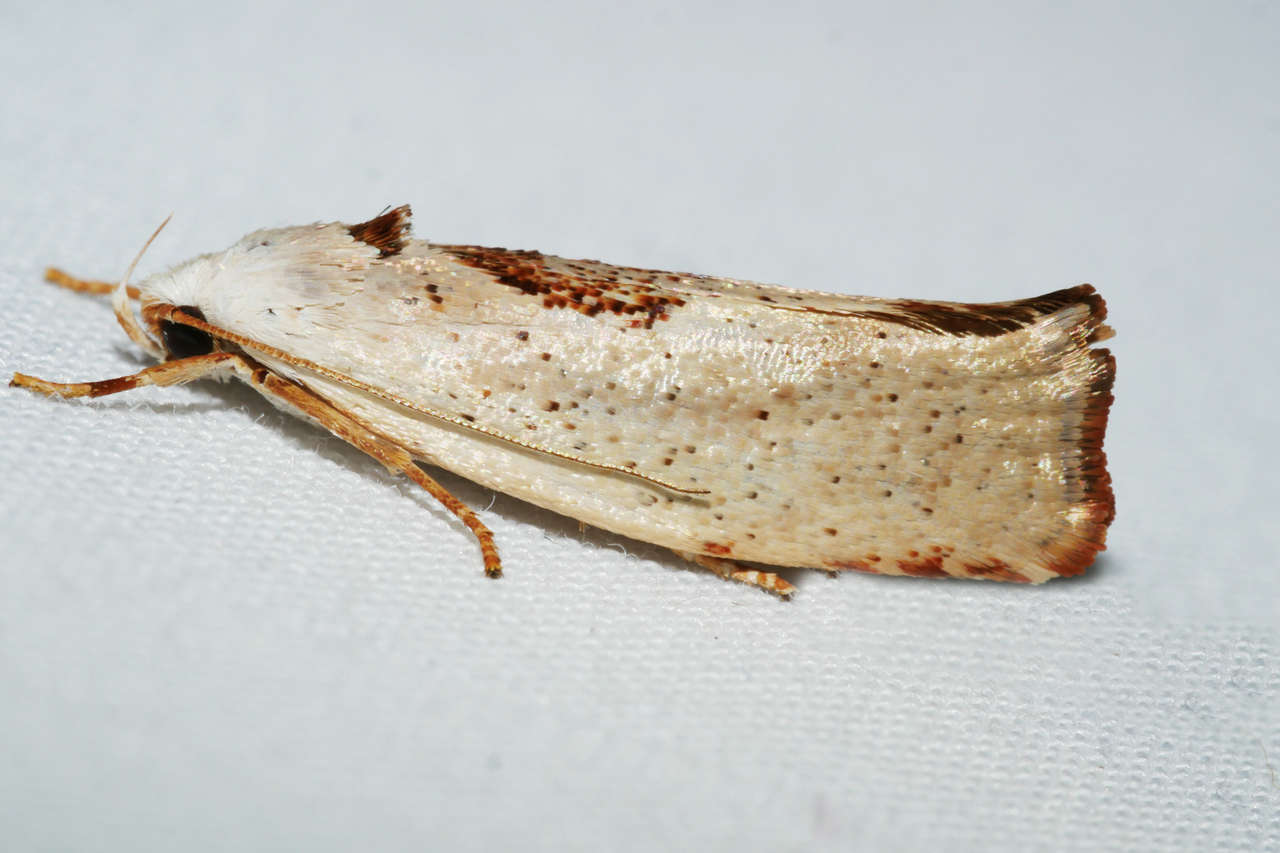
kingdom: Animalia
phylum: Arthropoda
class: Insecta
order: Lepidoptera
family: Xyloryctidae
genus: Tymbophora
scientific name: Tymbophora peltastis
